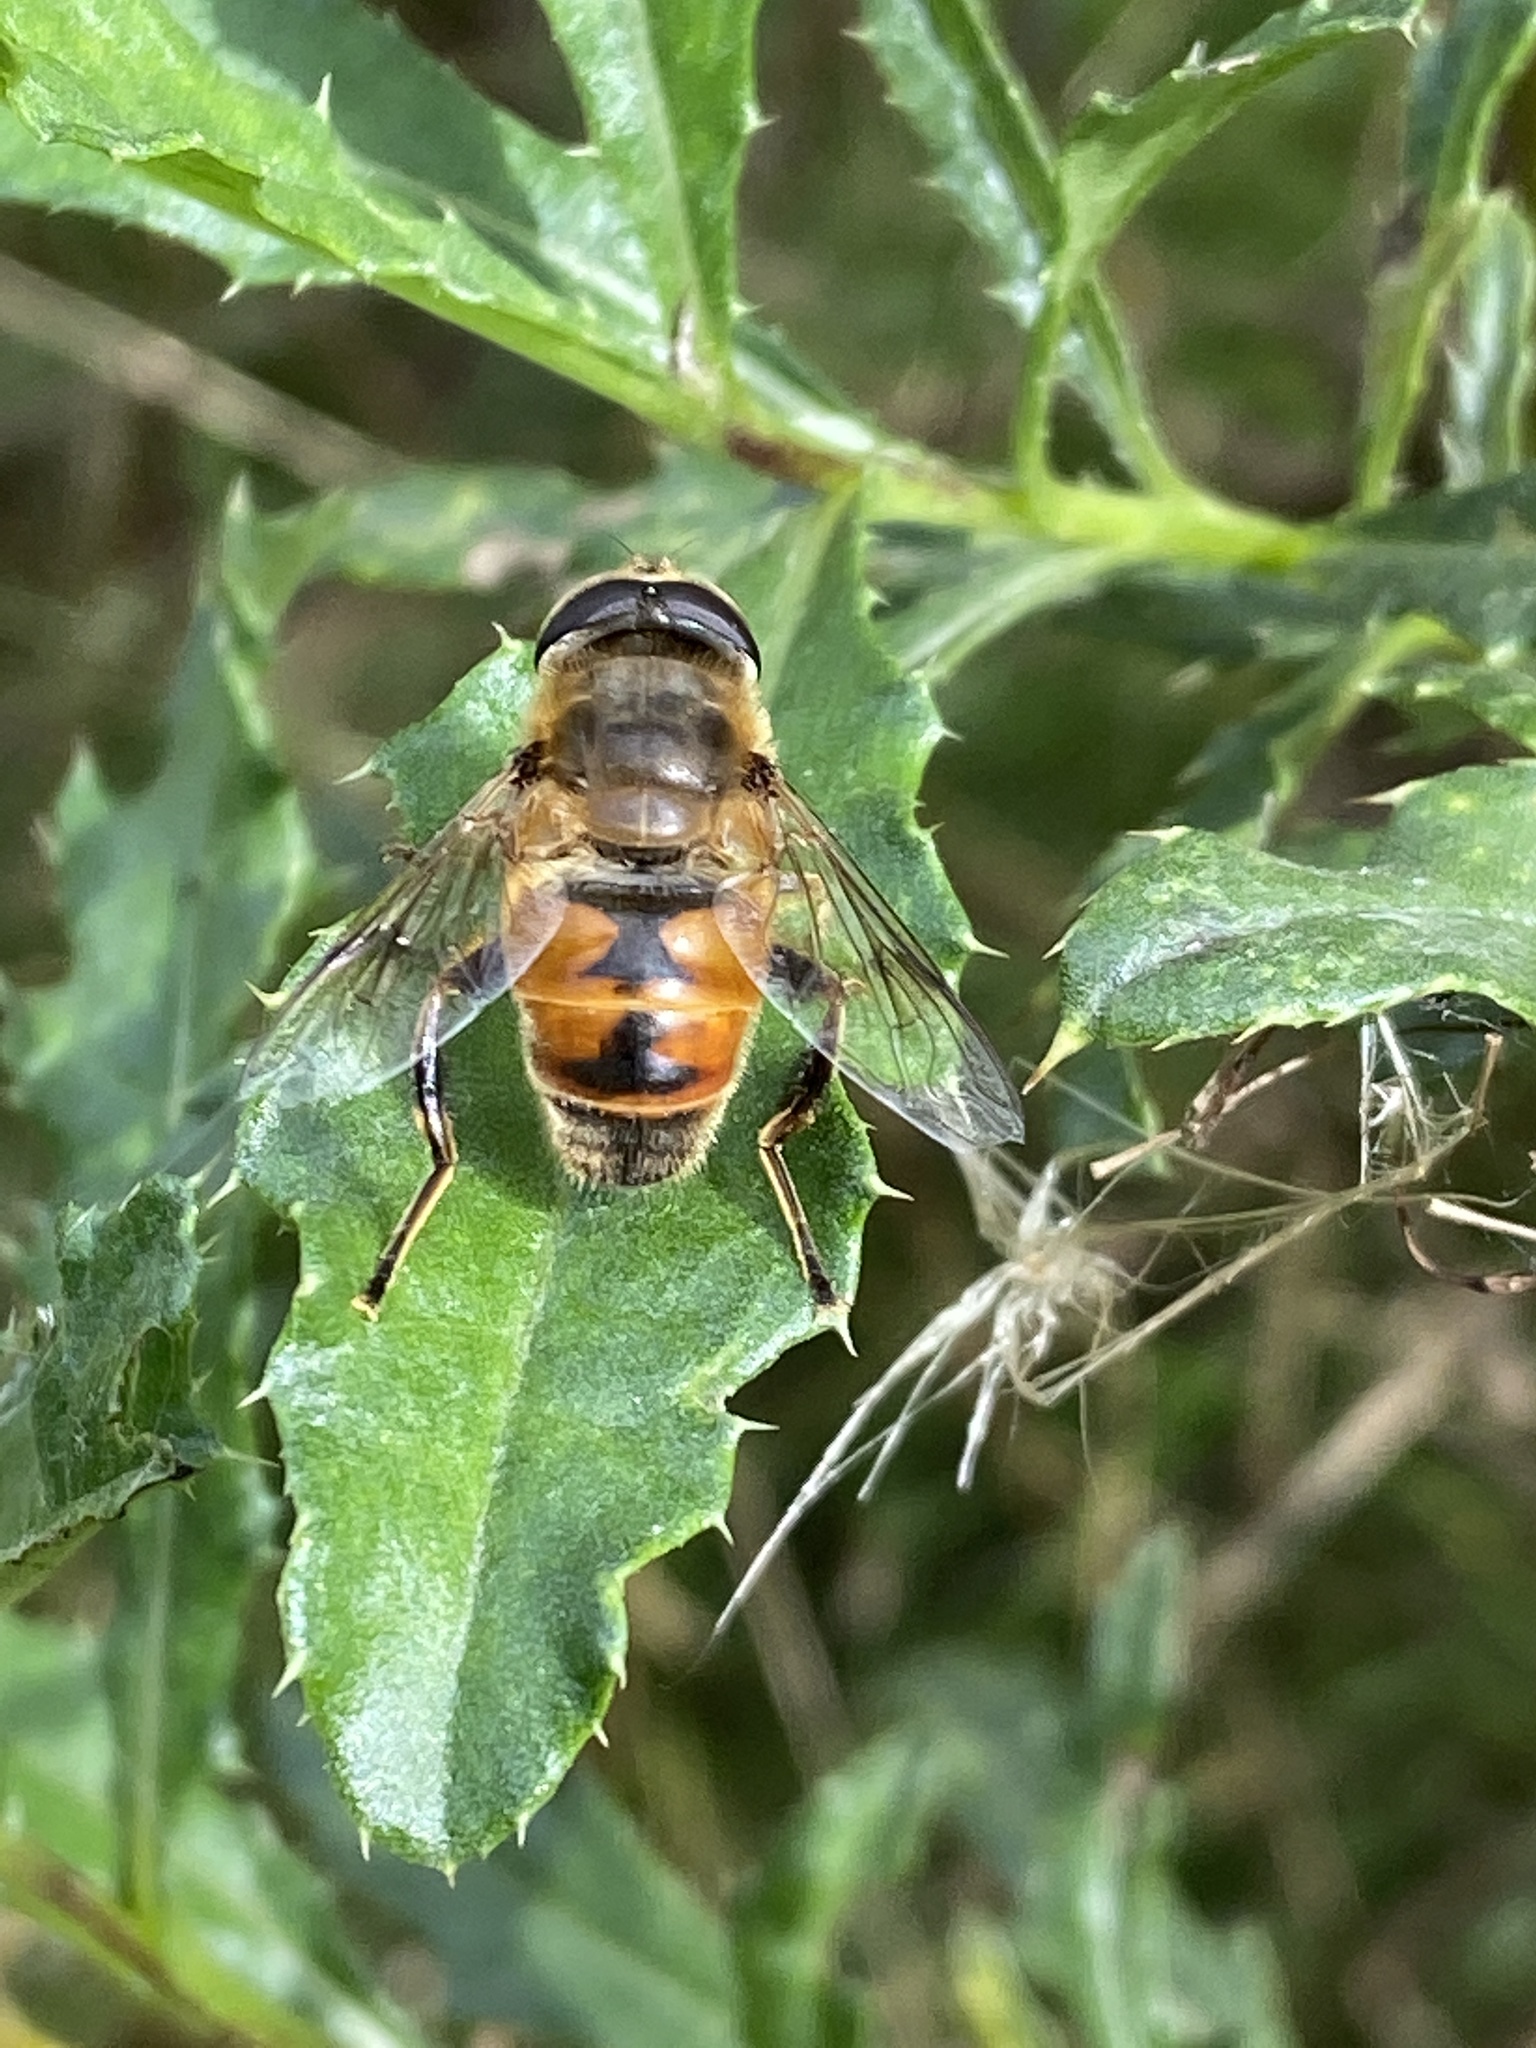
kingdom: Animalia
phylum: Arthropoda
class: Insecta
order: Diptera
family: Syrphidae
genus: Eristalis
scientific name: Eristalis tenax
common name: Drone fly
